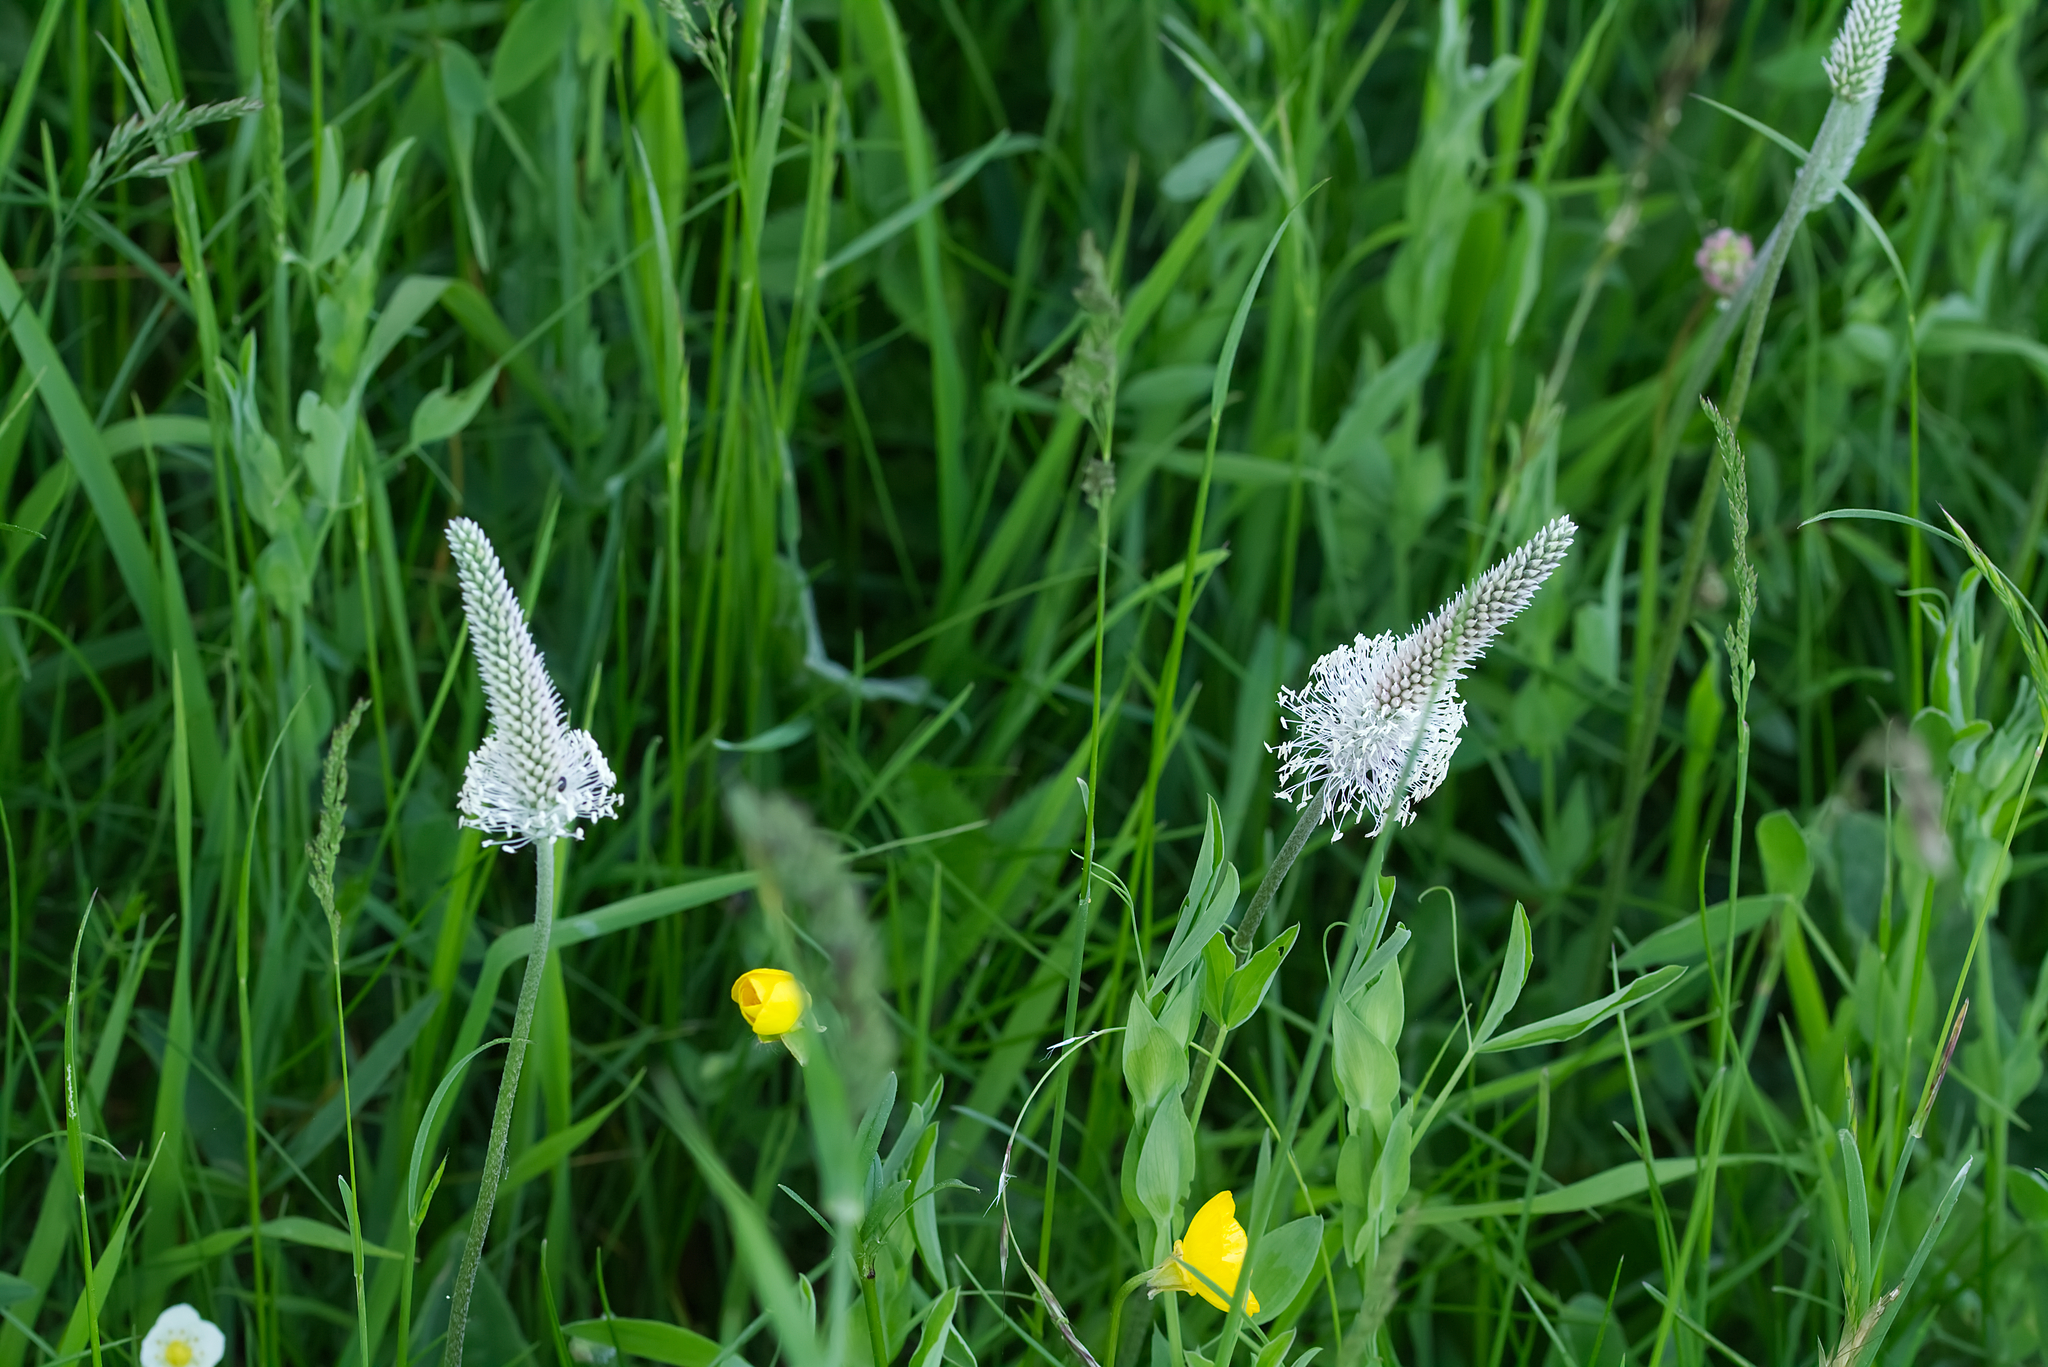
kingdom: Plantae
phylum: Tracheophyta
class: Magnoliopsida
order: Lamiales
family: Plantaginaceae
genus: Plantago
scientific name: Plantago media
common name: Hoary plantain
